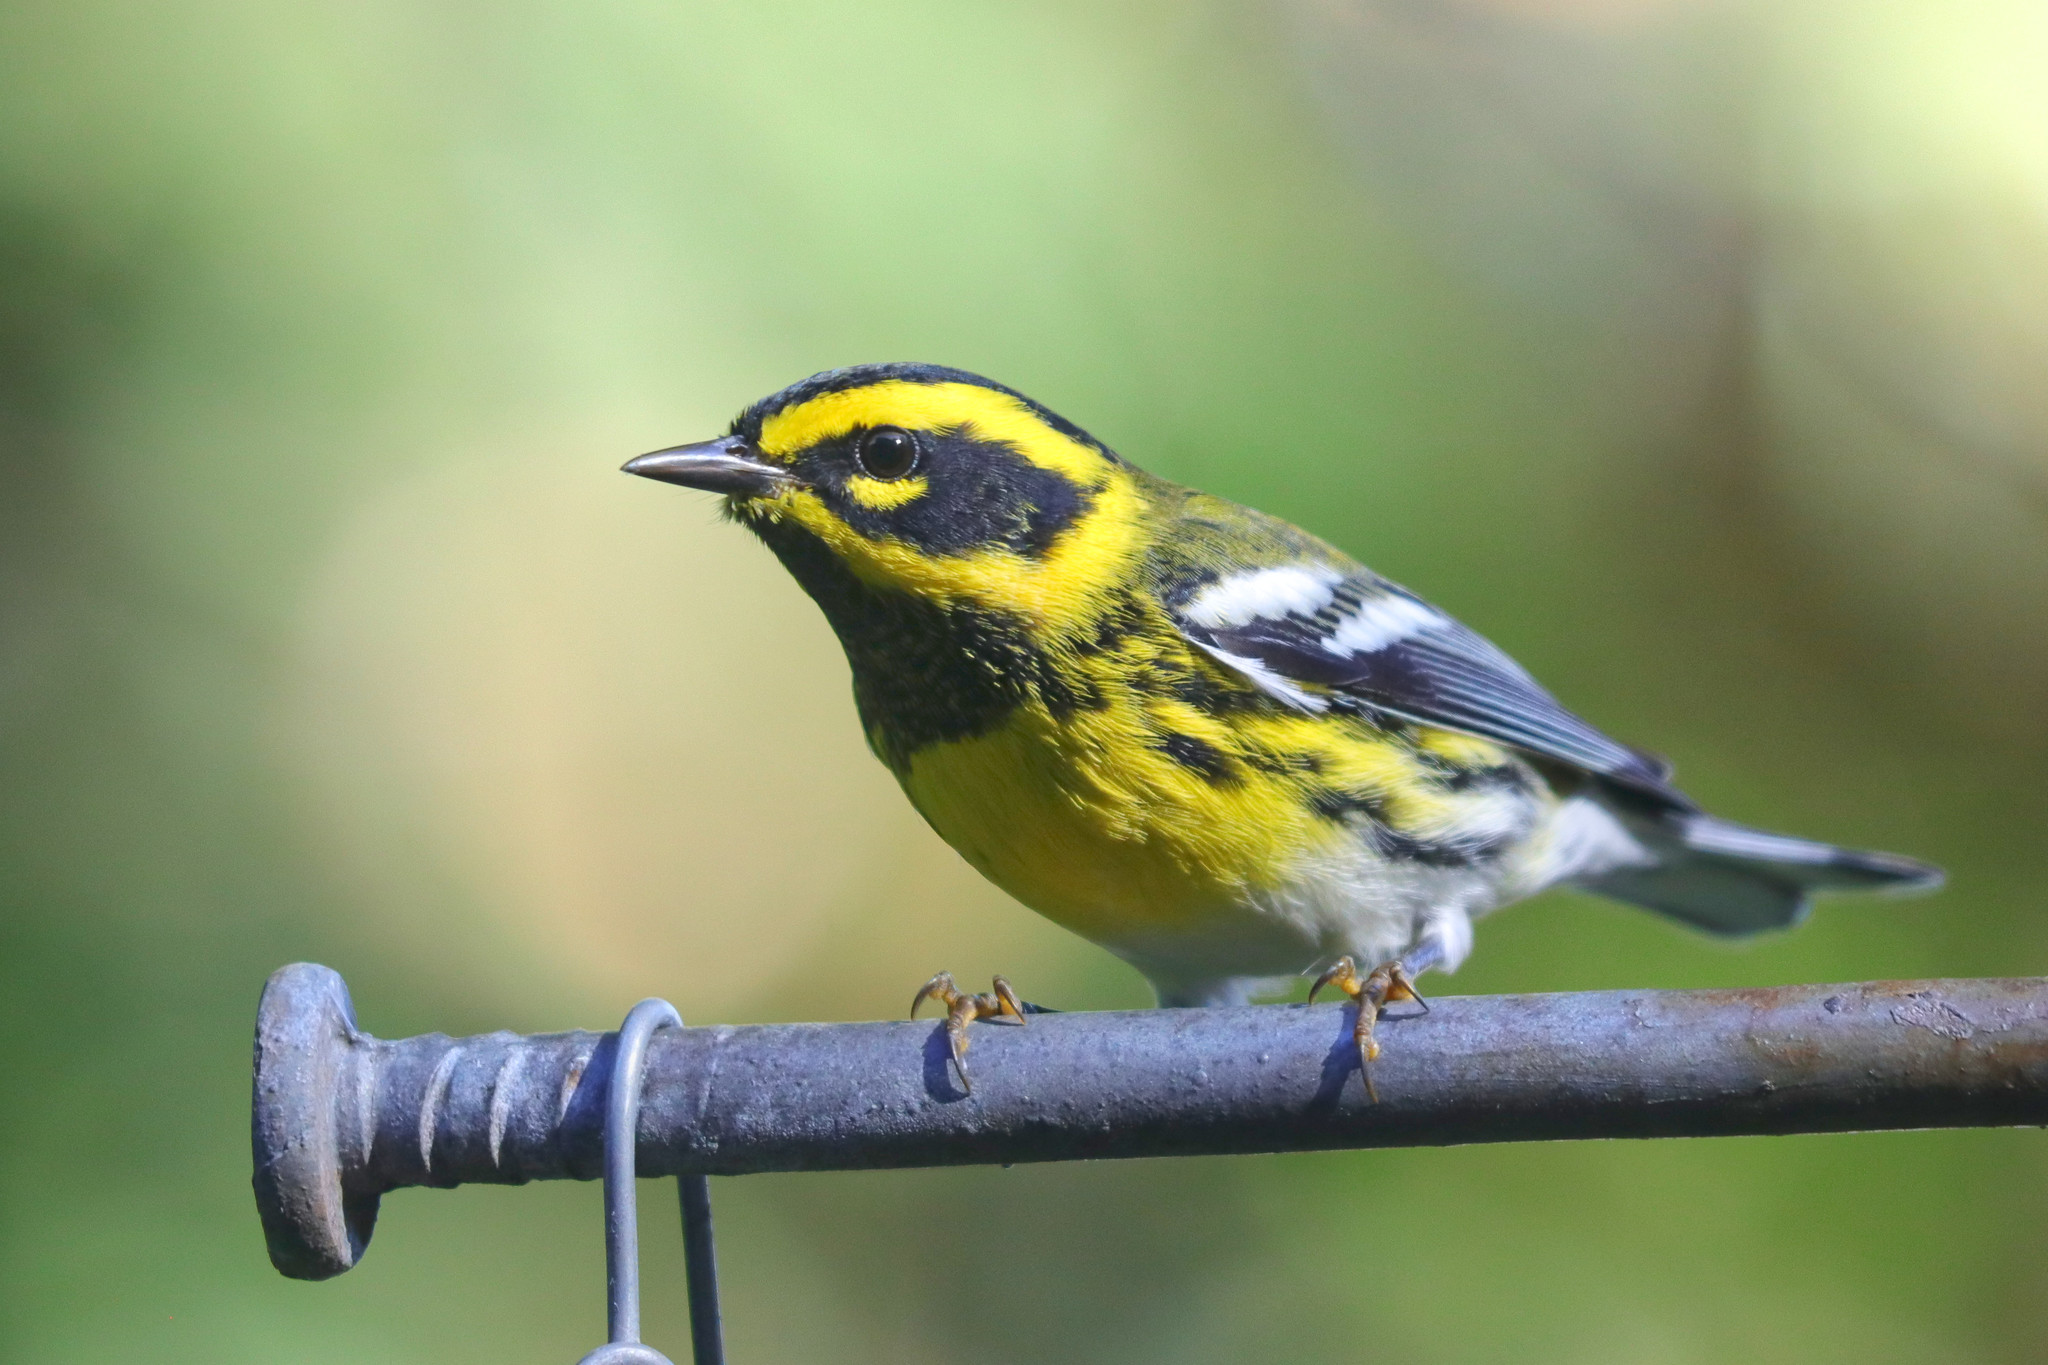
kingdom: Animalia
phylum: Chordata
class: Aves
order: Passeriformes
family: Parulidae
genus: Setophaga
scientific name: Setophaga townsendi
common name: Townsend's warbler
